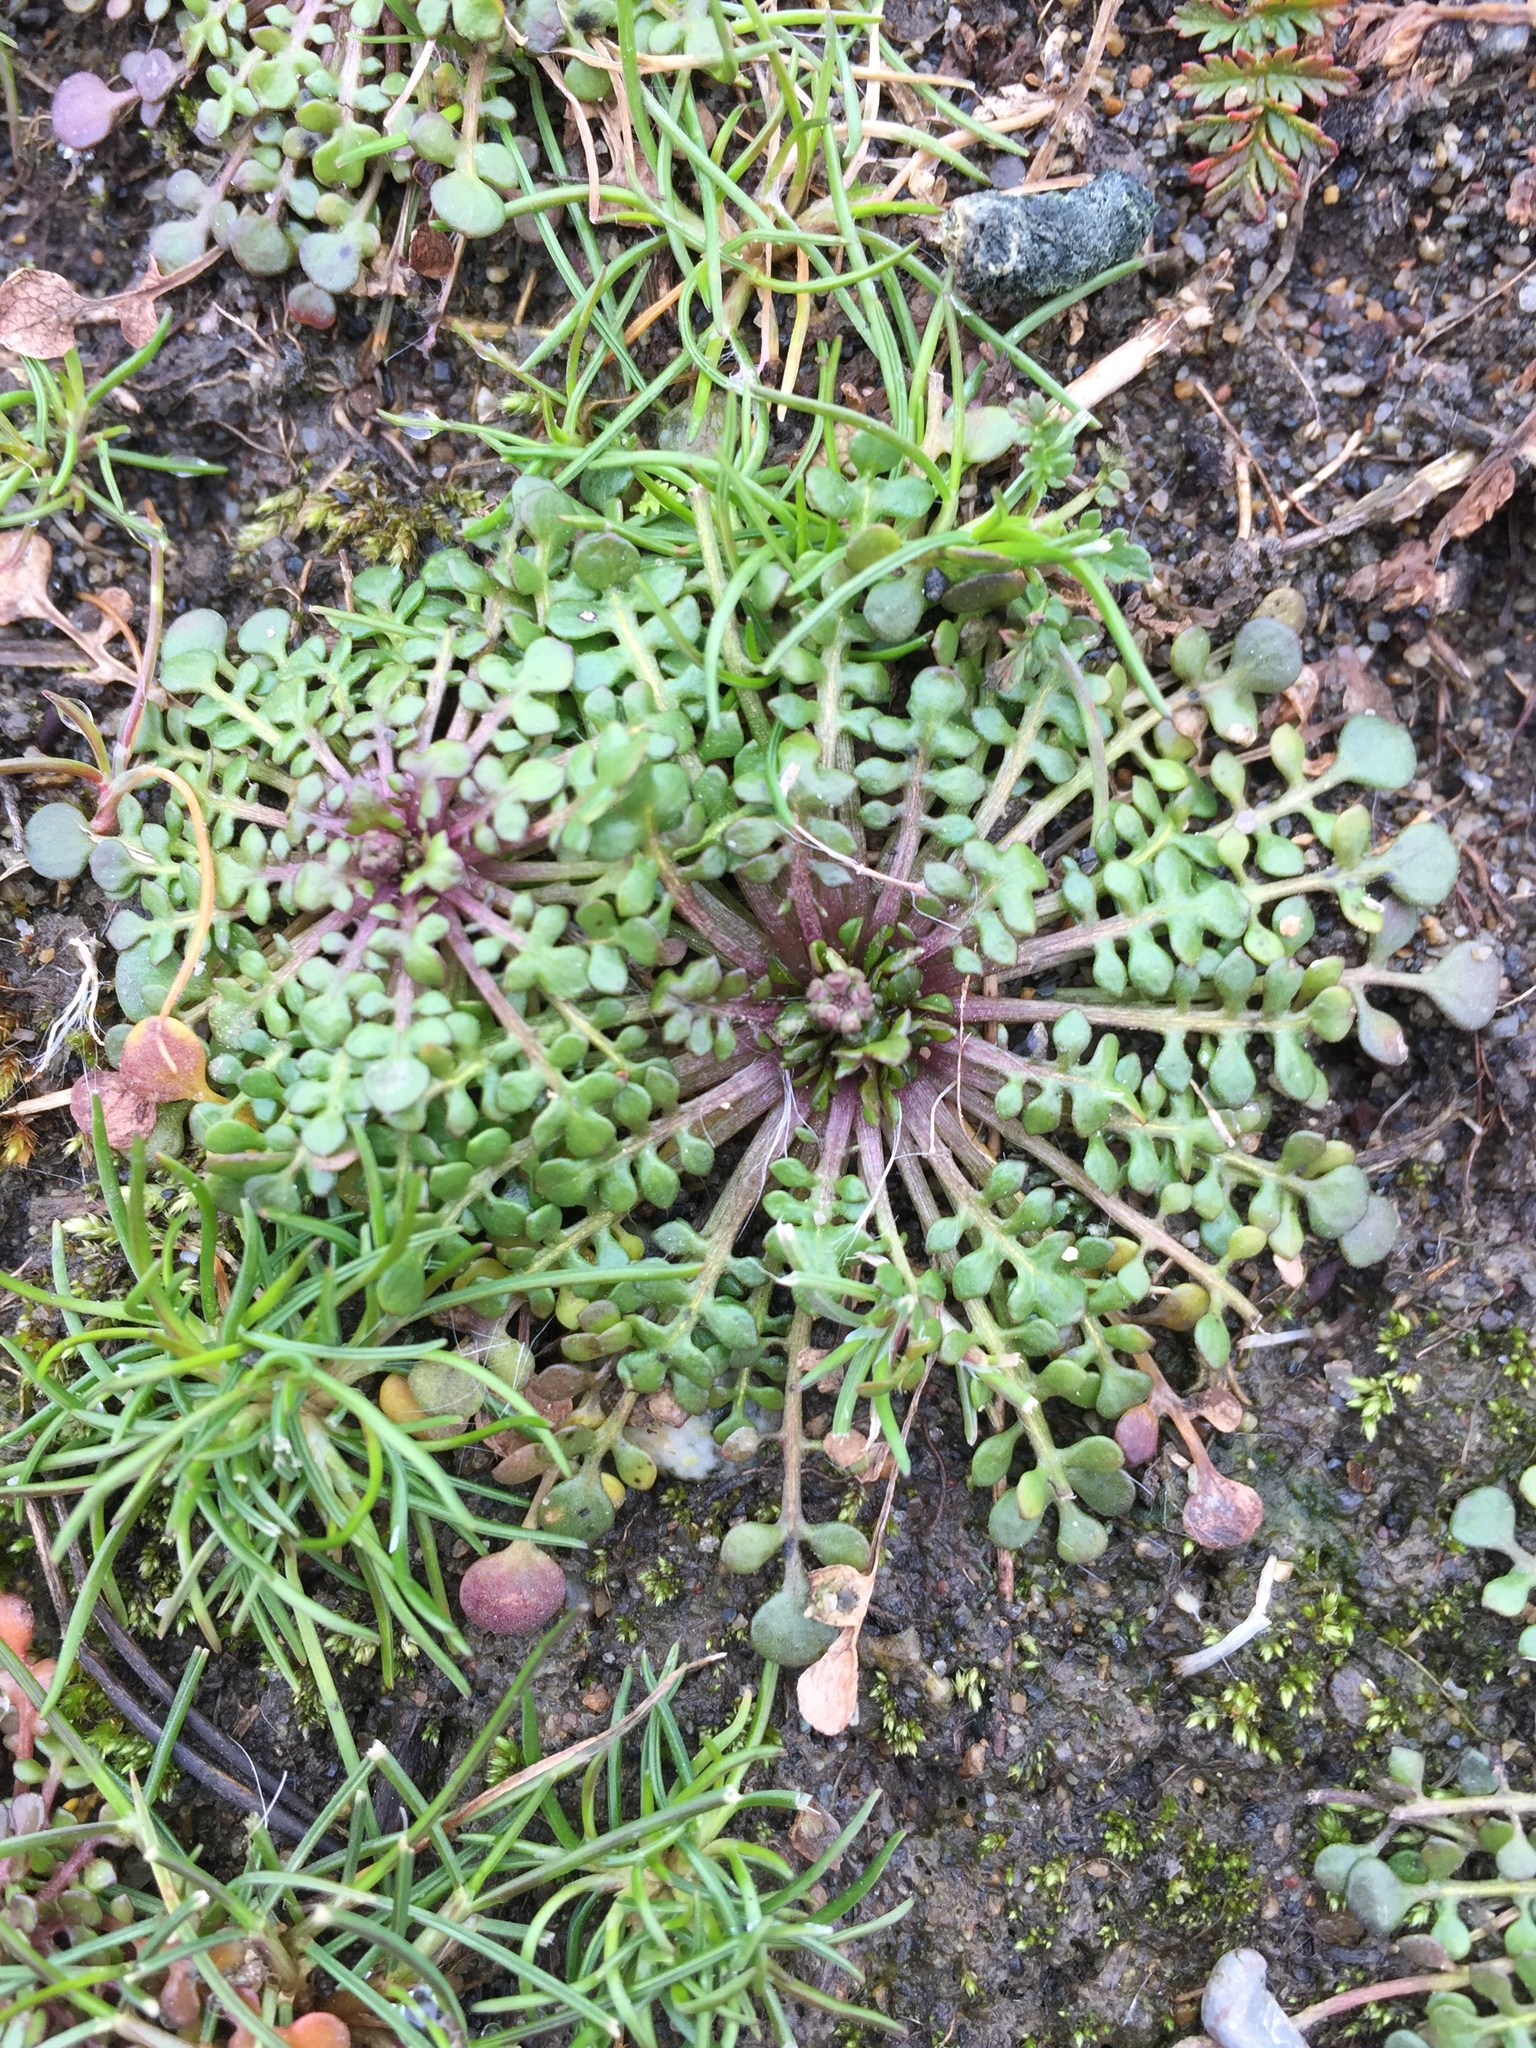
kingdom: Plantae
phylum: Tracheophyta
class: Magnoliopsida
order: Brassicales
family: Brassicaceae
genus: Teesdalia
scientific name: Teesdalia nudicaulis
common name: Shepherd's cress
